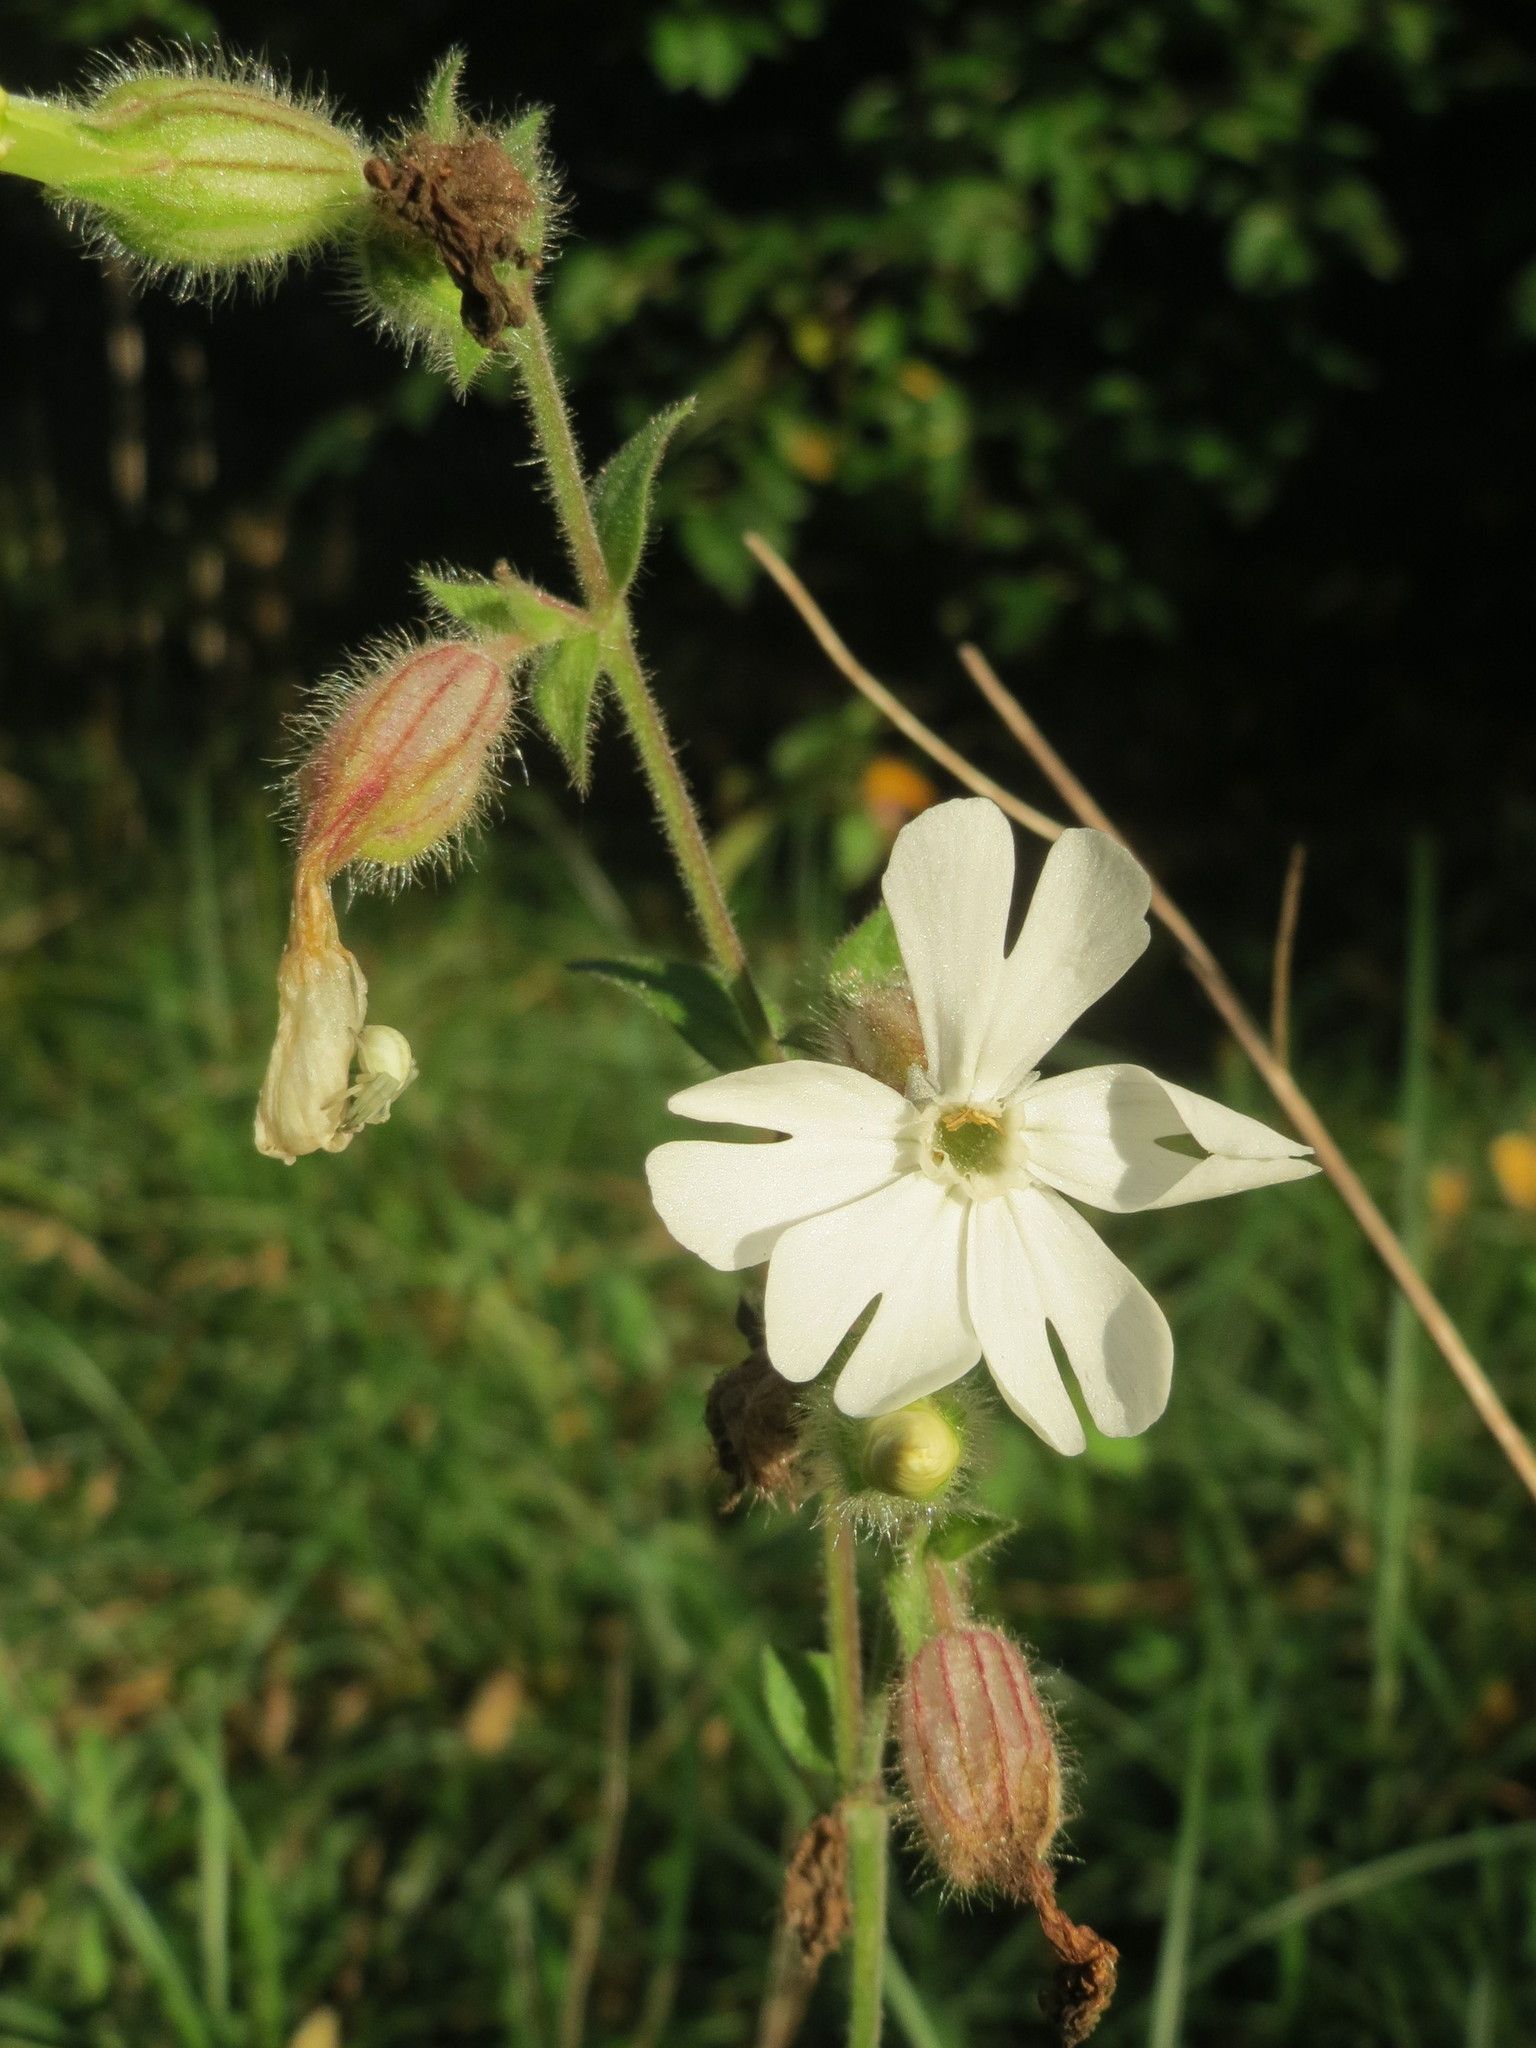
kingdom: Plantae
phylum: Tracheophyta
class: Magnoliopsida
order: Caryophyllales
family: Caryophyllaceae
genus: Silene
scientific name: Silene latifolia
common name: White campion
